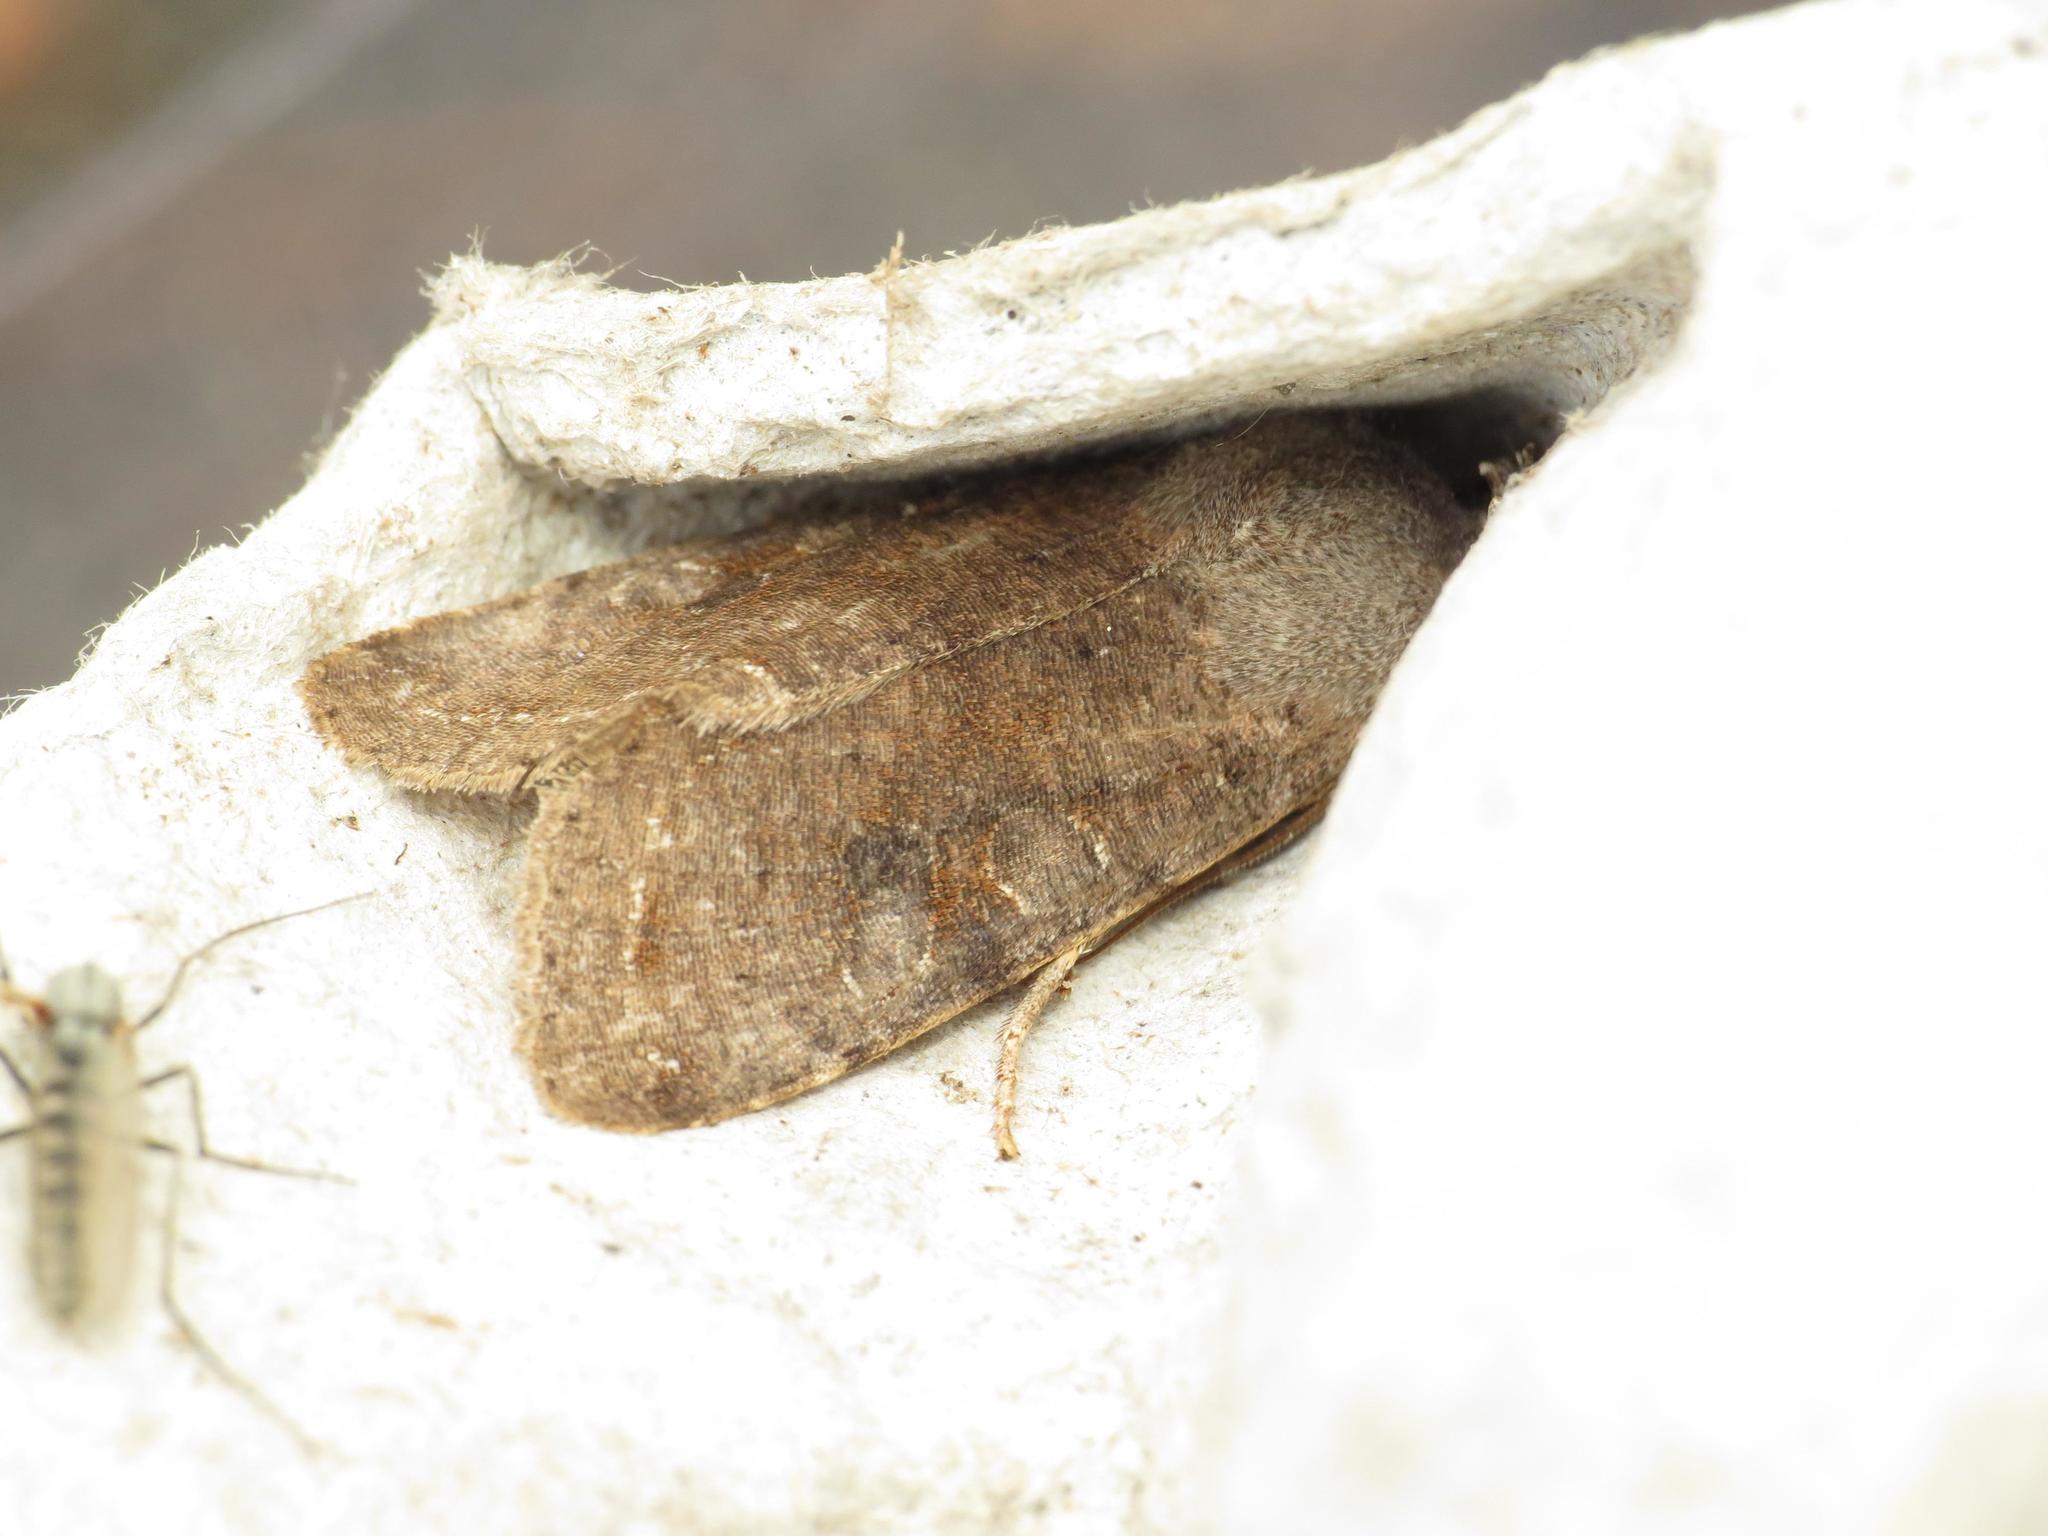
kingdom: Animalia
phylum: Arthropoda
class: Insecta
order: Lepidoptera
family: Noctuidae
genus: Orthosia
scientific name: Orthosia incerta
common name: Clouded drab
